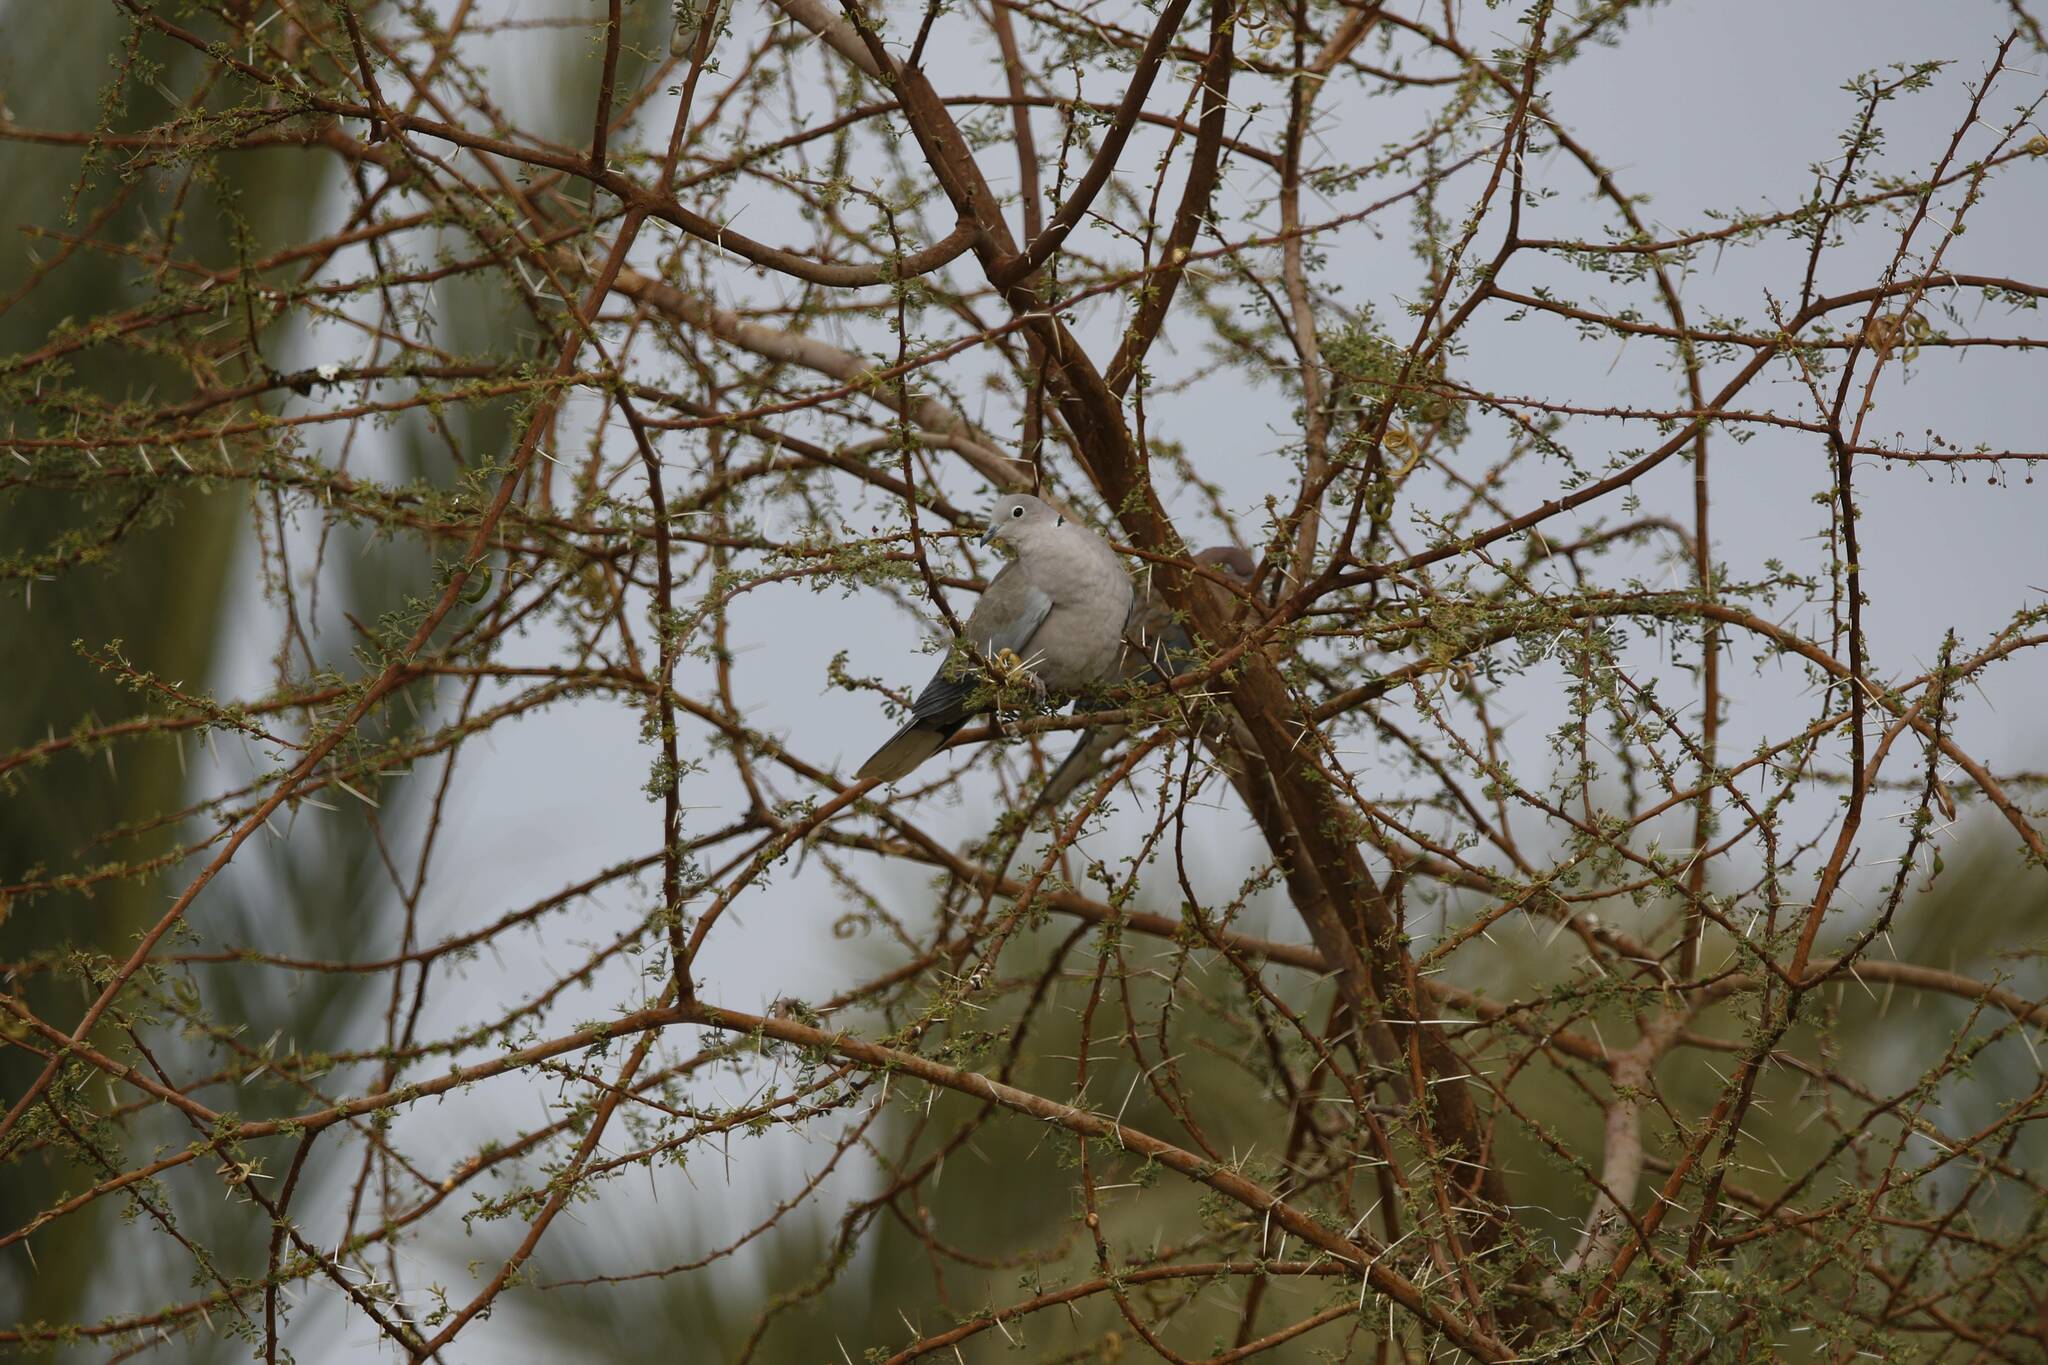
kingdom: Animalia
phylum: Chordata
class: Aves
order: Columbiformes
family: Columbidae
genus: Streptopelia
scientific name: Streptopelia decaocto
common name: Eurasian collared dove
